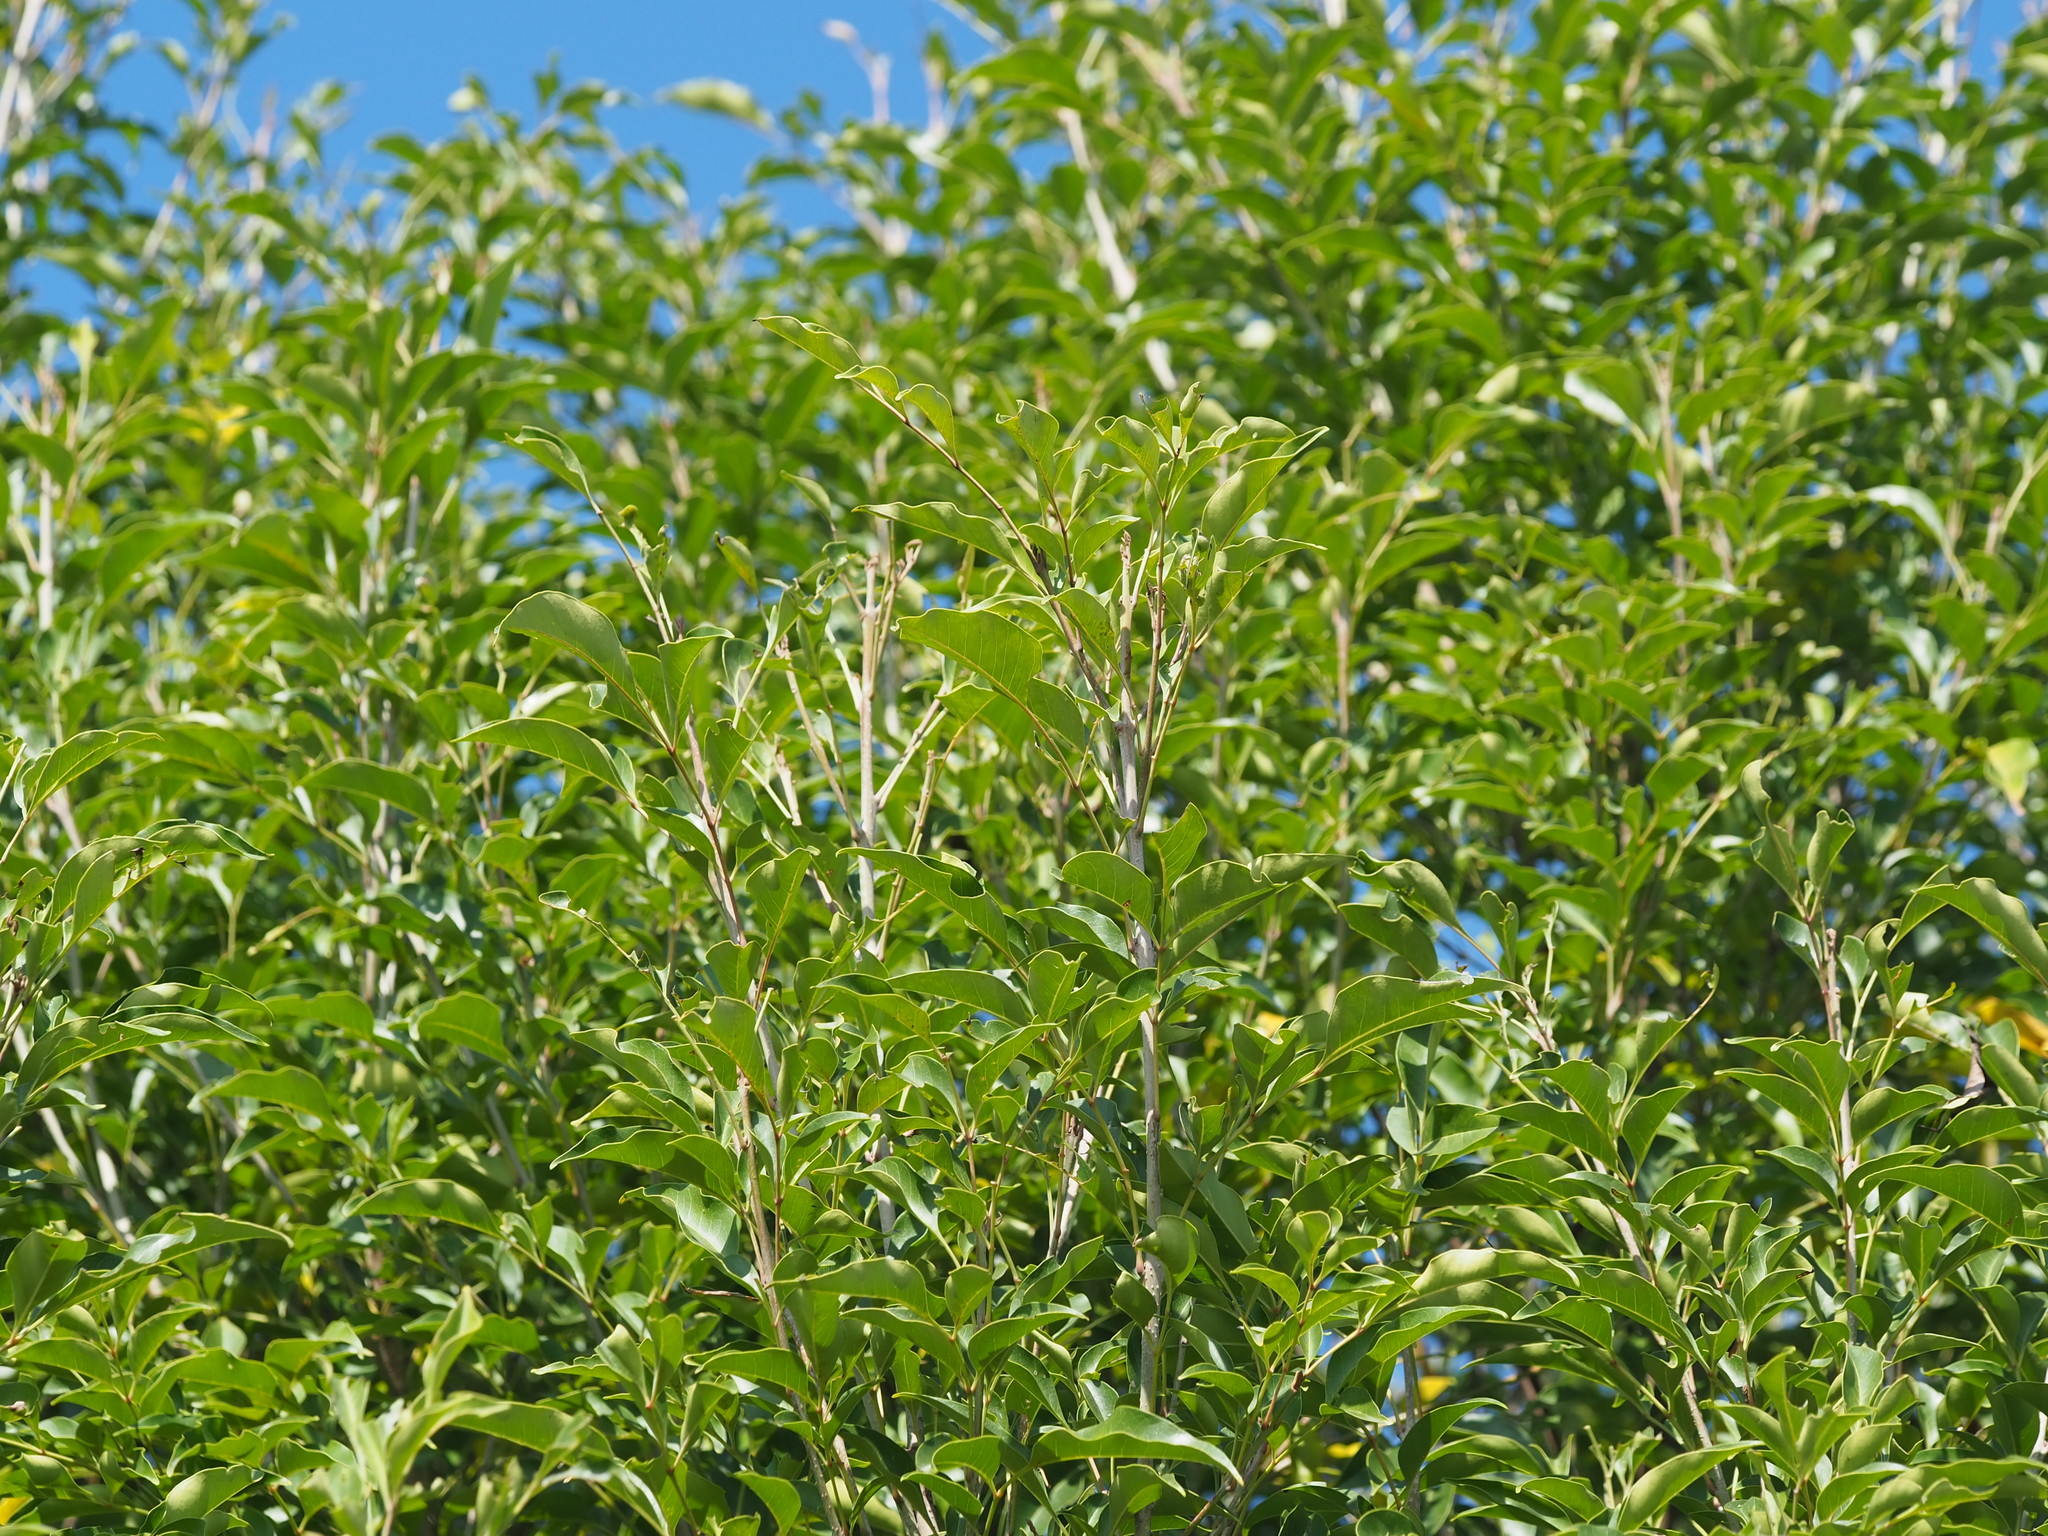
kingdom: Plantae
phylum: Tracheophyta
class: Magnoliopsida
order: Lamiales
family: Oleaceae
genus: Fraxinus
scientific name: Fraxinus griffithii
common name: Himalayan ash
